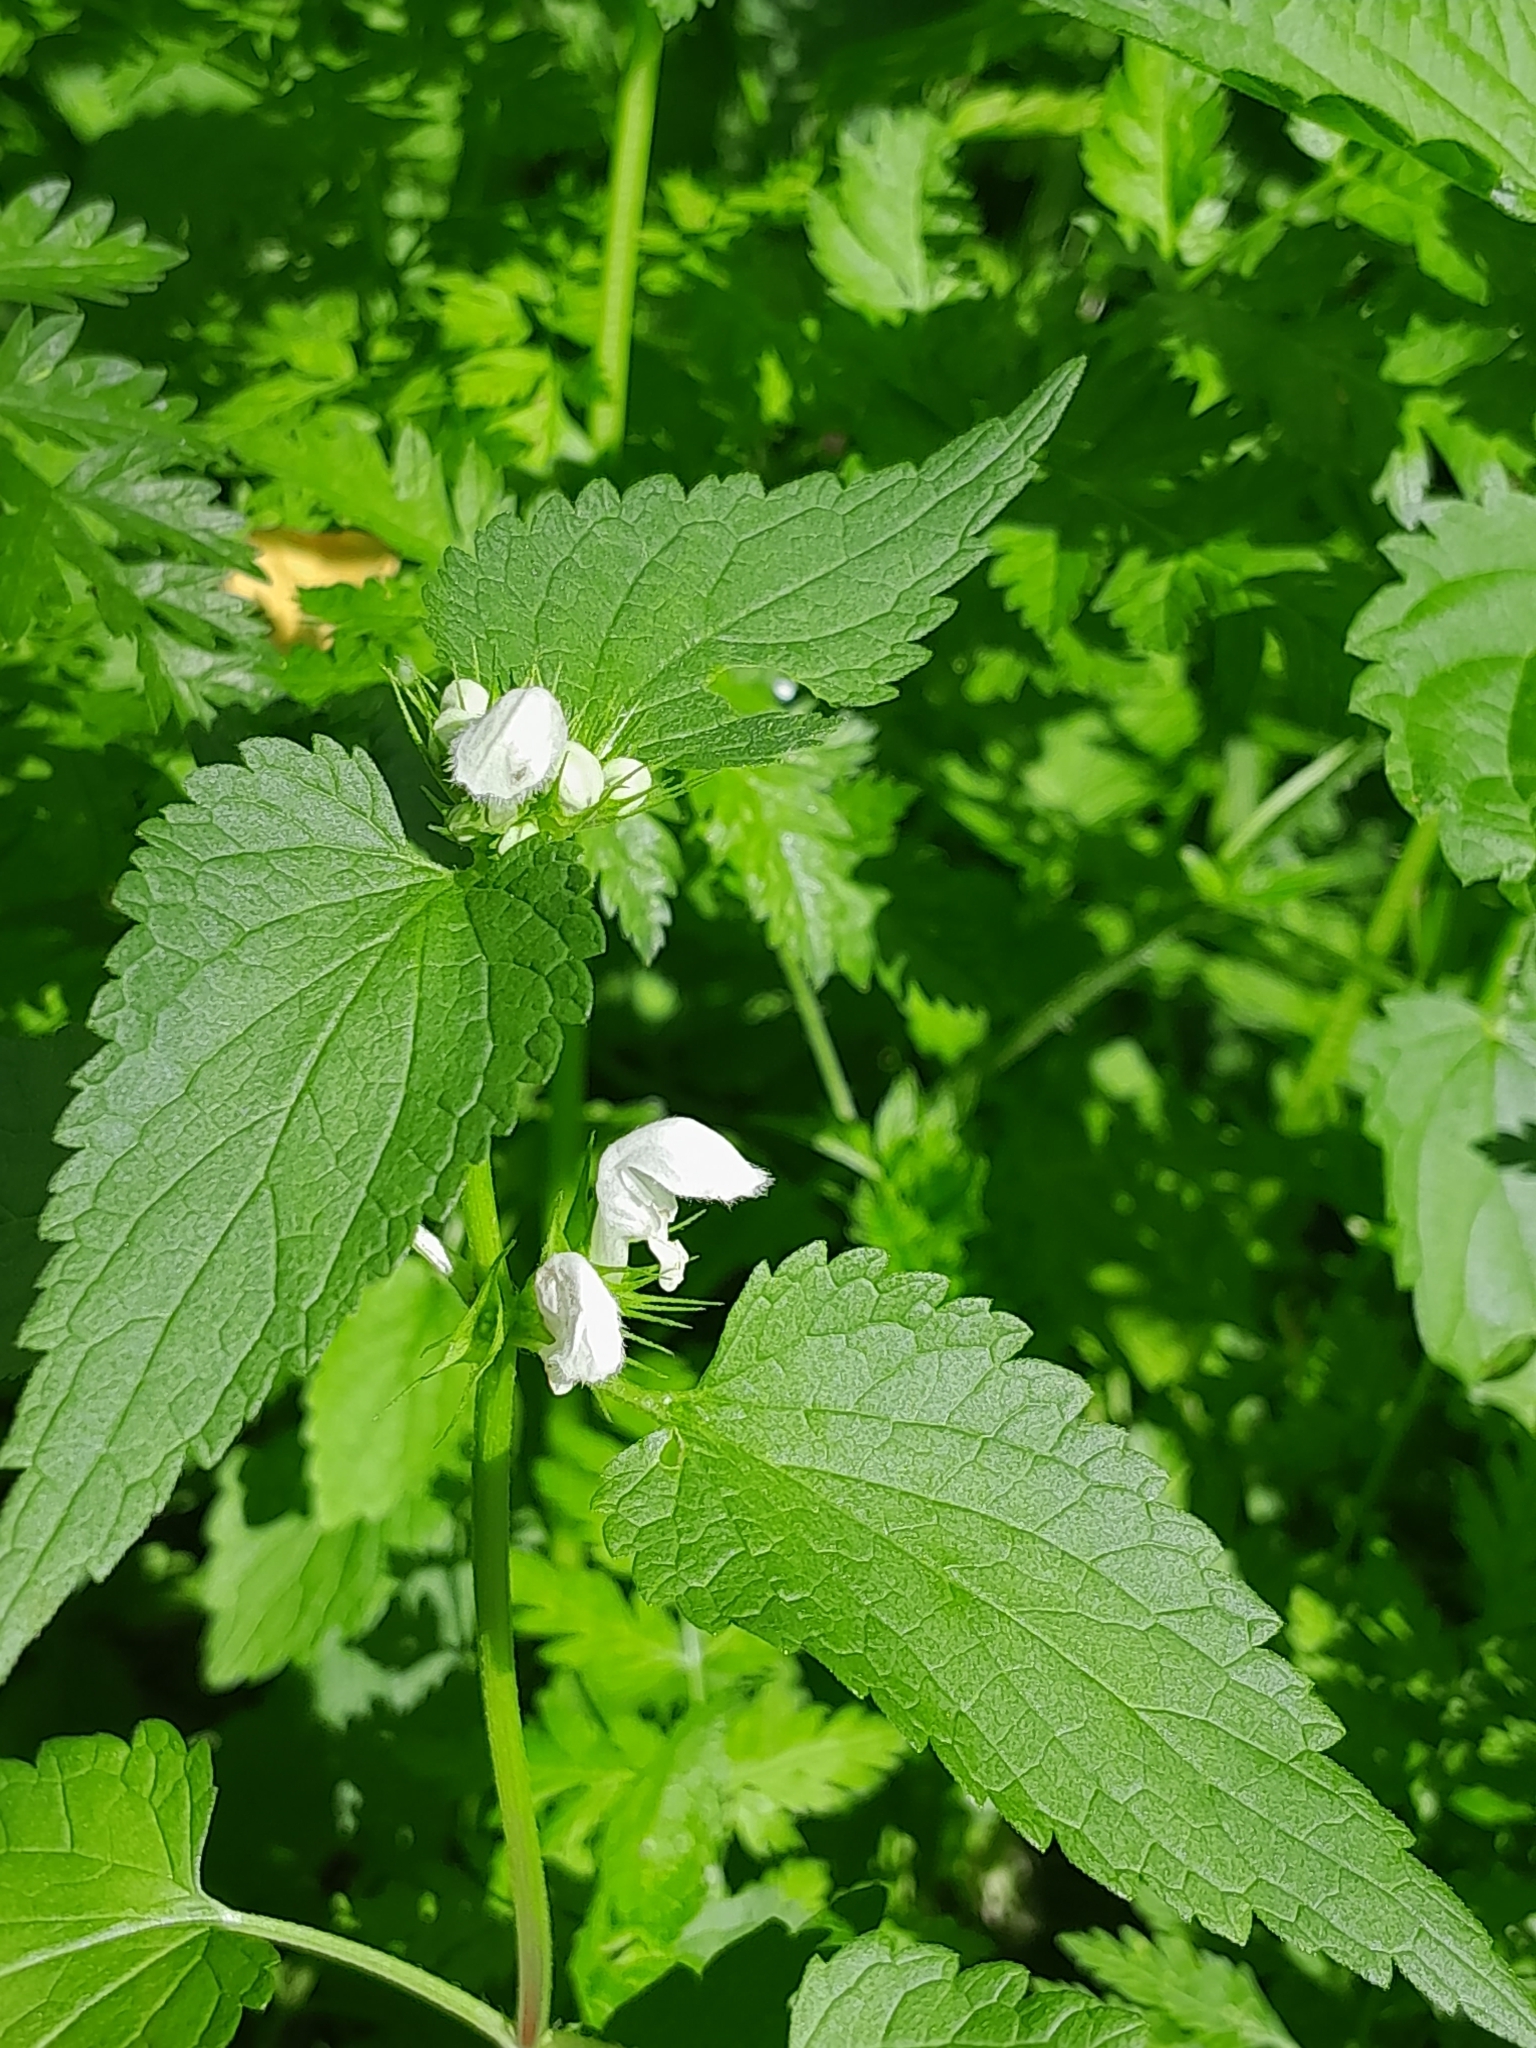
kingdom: Plantae
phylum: Tracheophyta
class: Magnoliopsida
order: Lamiales
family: Lamiaceae
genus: Lamium
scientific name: Lamium album
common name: White dead-nettle
